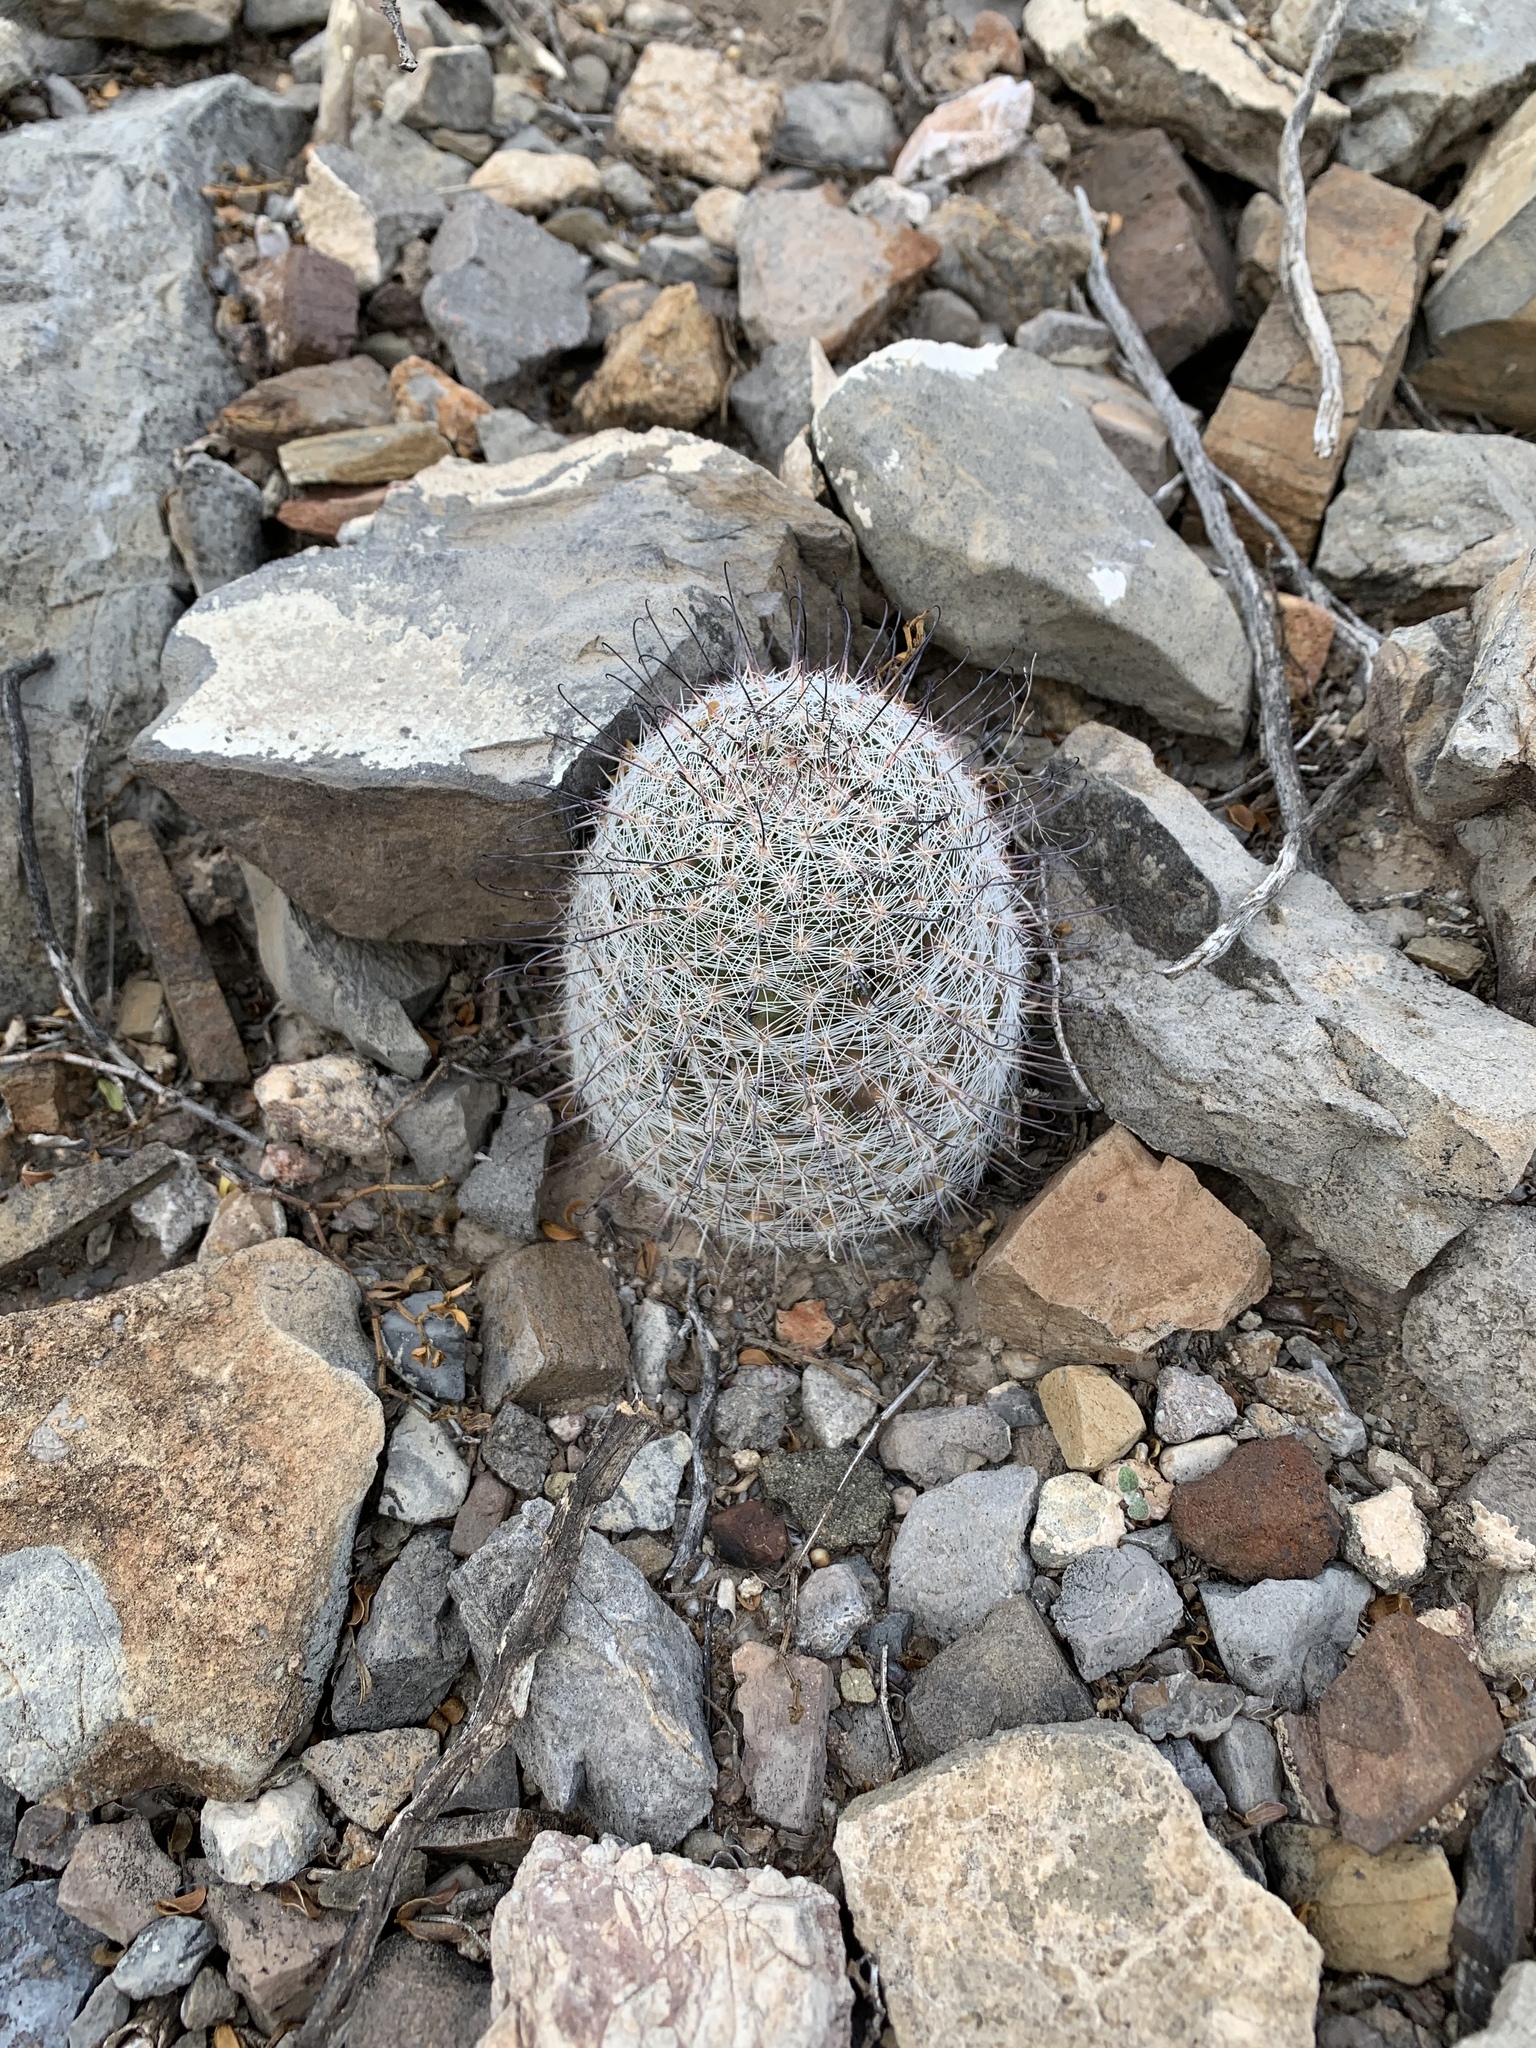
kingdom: Plantae
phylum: Tracheophyta
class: Magnoliopsida
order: Caryophyllales
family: Cactaceae
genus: Cochemiea
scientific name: Cochemiea grahamii
